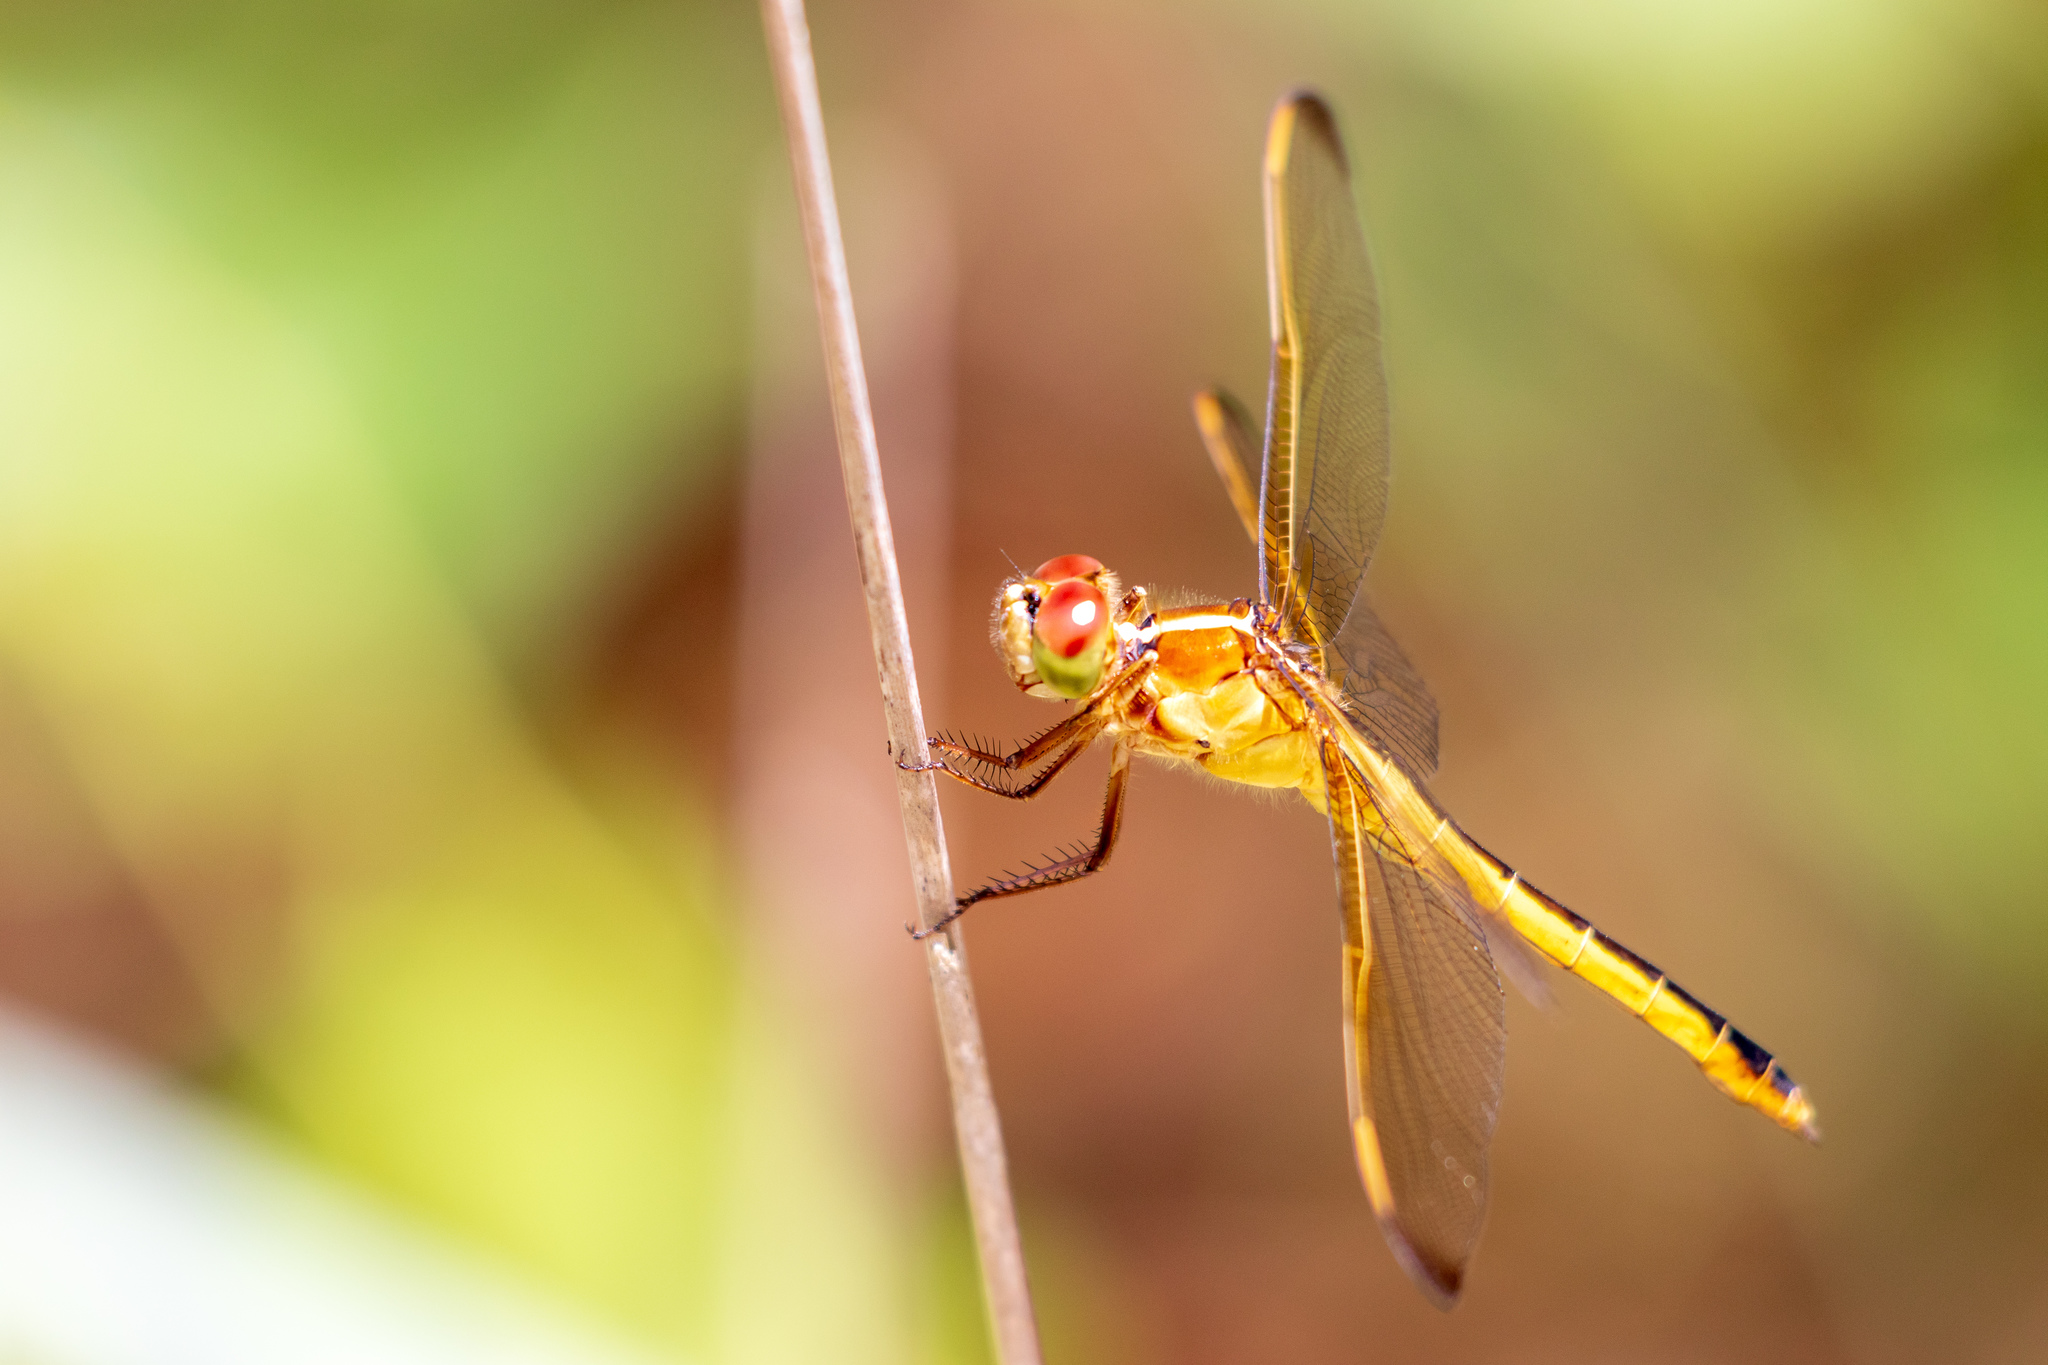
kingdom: Animalia
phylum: Arthropoda
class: Insecta
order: Odonata
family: Libellulidae
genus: Libellula
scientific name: Libellula needhami
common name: Needham's skimmer
